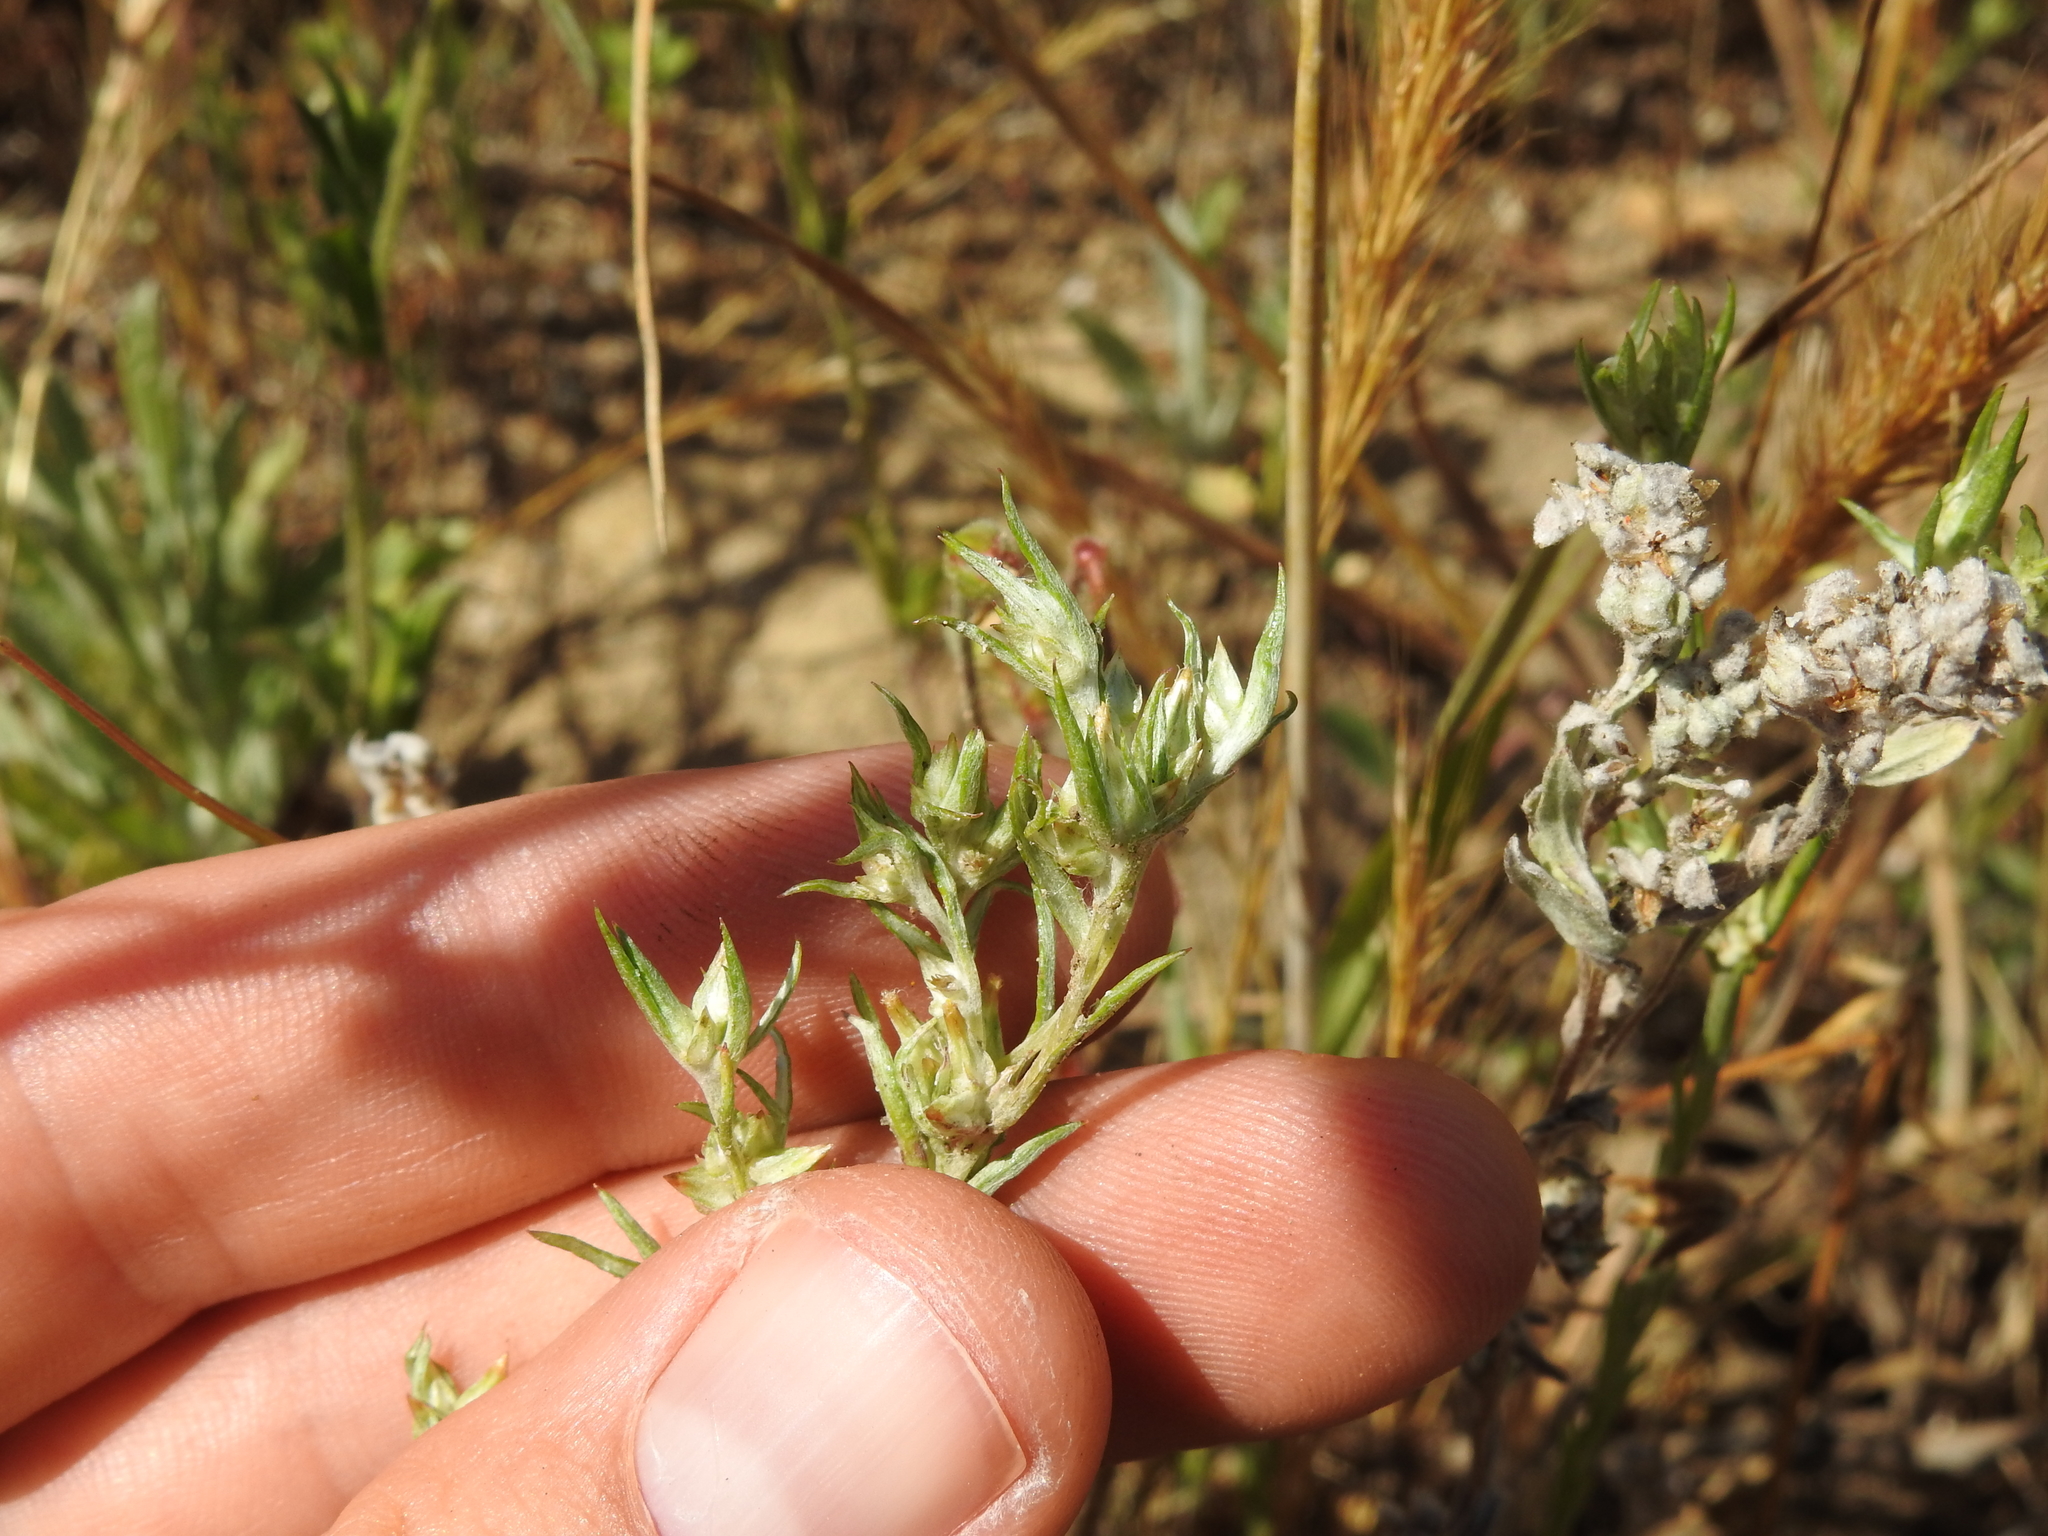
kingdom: Plantae
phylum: Tracheophyta
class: Magnoliopsida
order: Asterales
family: Asteraceae
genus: Logfia
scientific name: Logfia gallica
